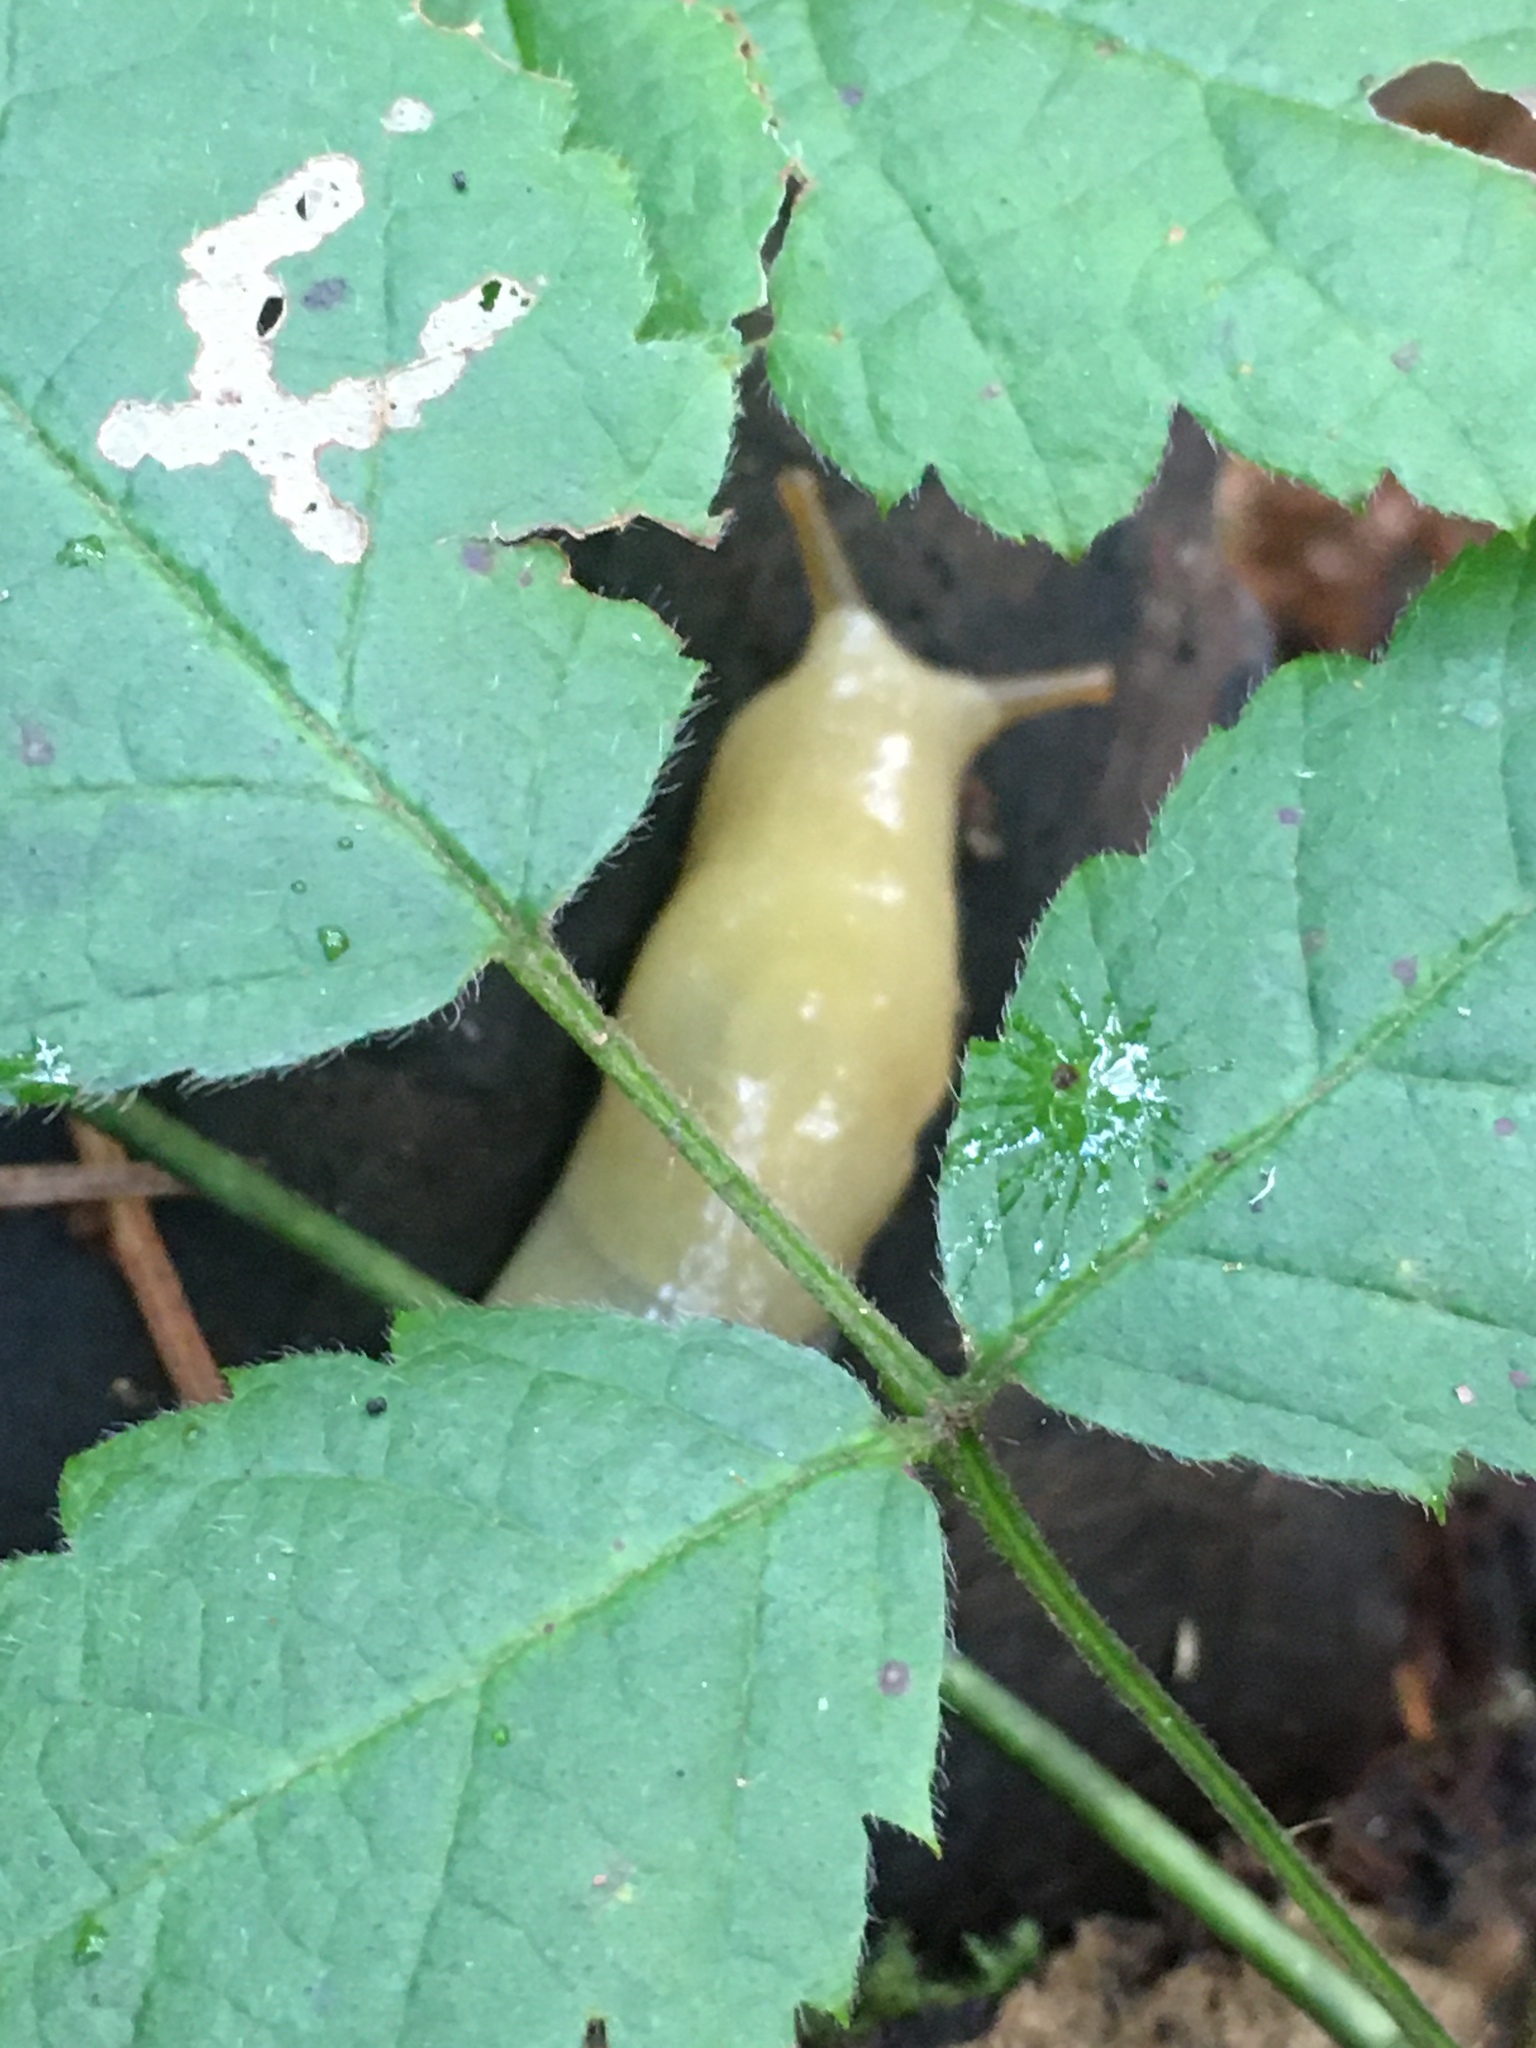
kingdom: Animalia
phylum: Mollusca
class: Gastropoda
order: Stylommatophora
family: Ariolimacidae
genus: Ariolimax
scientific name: Ariolimax columbianus
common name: Pacific banana slug
